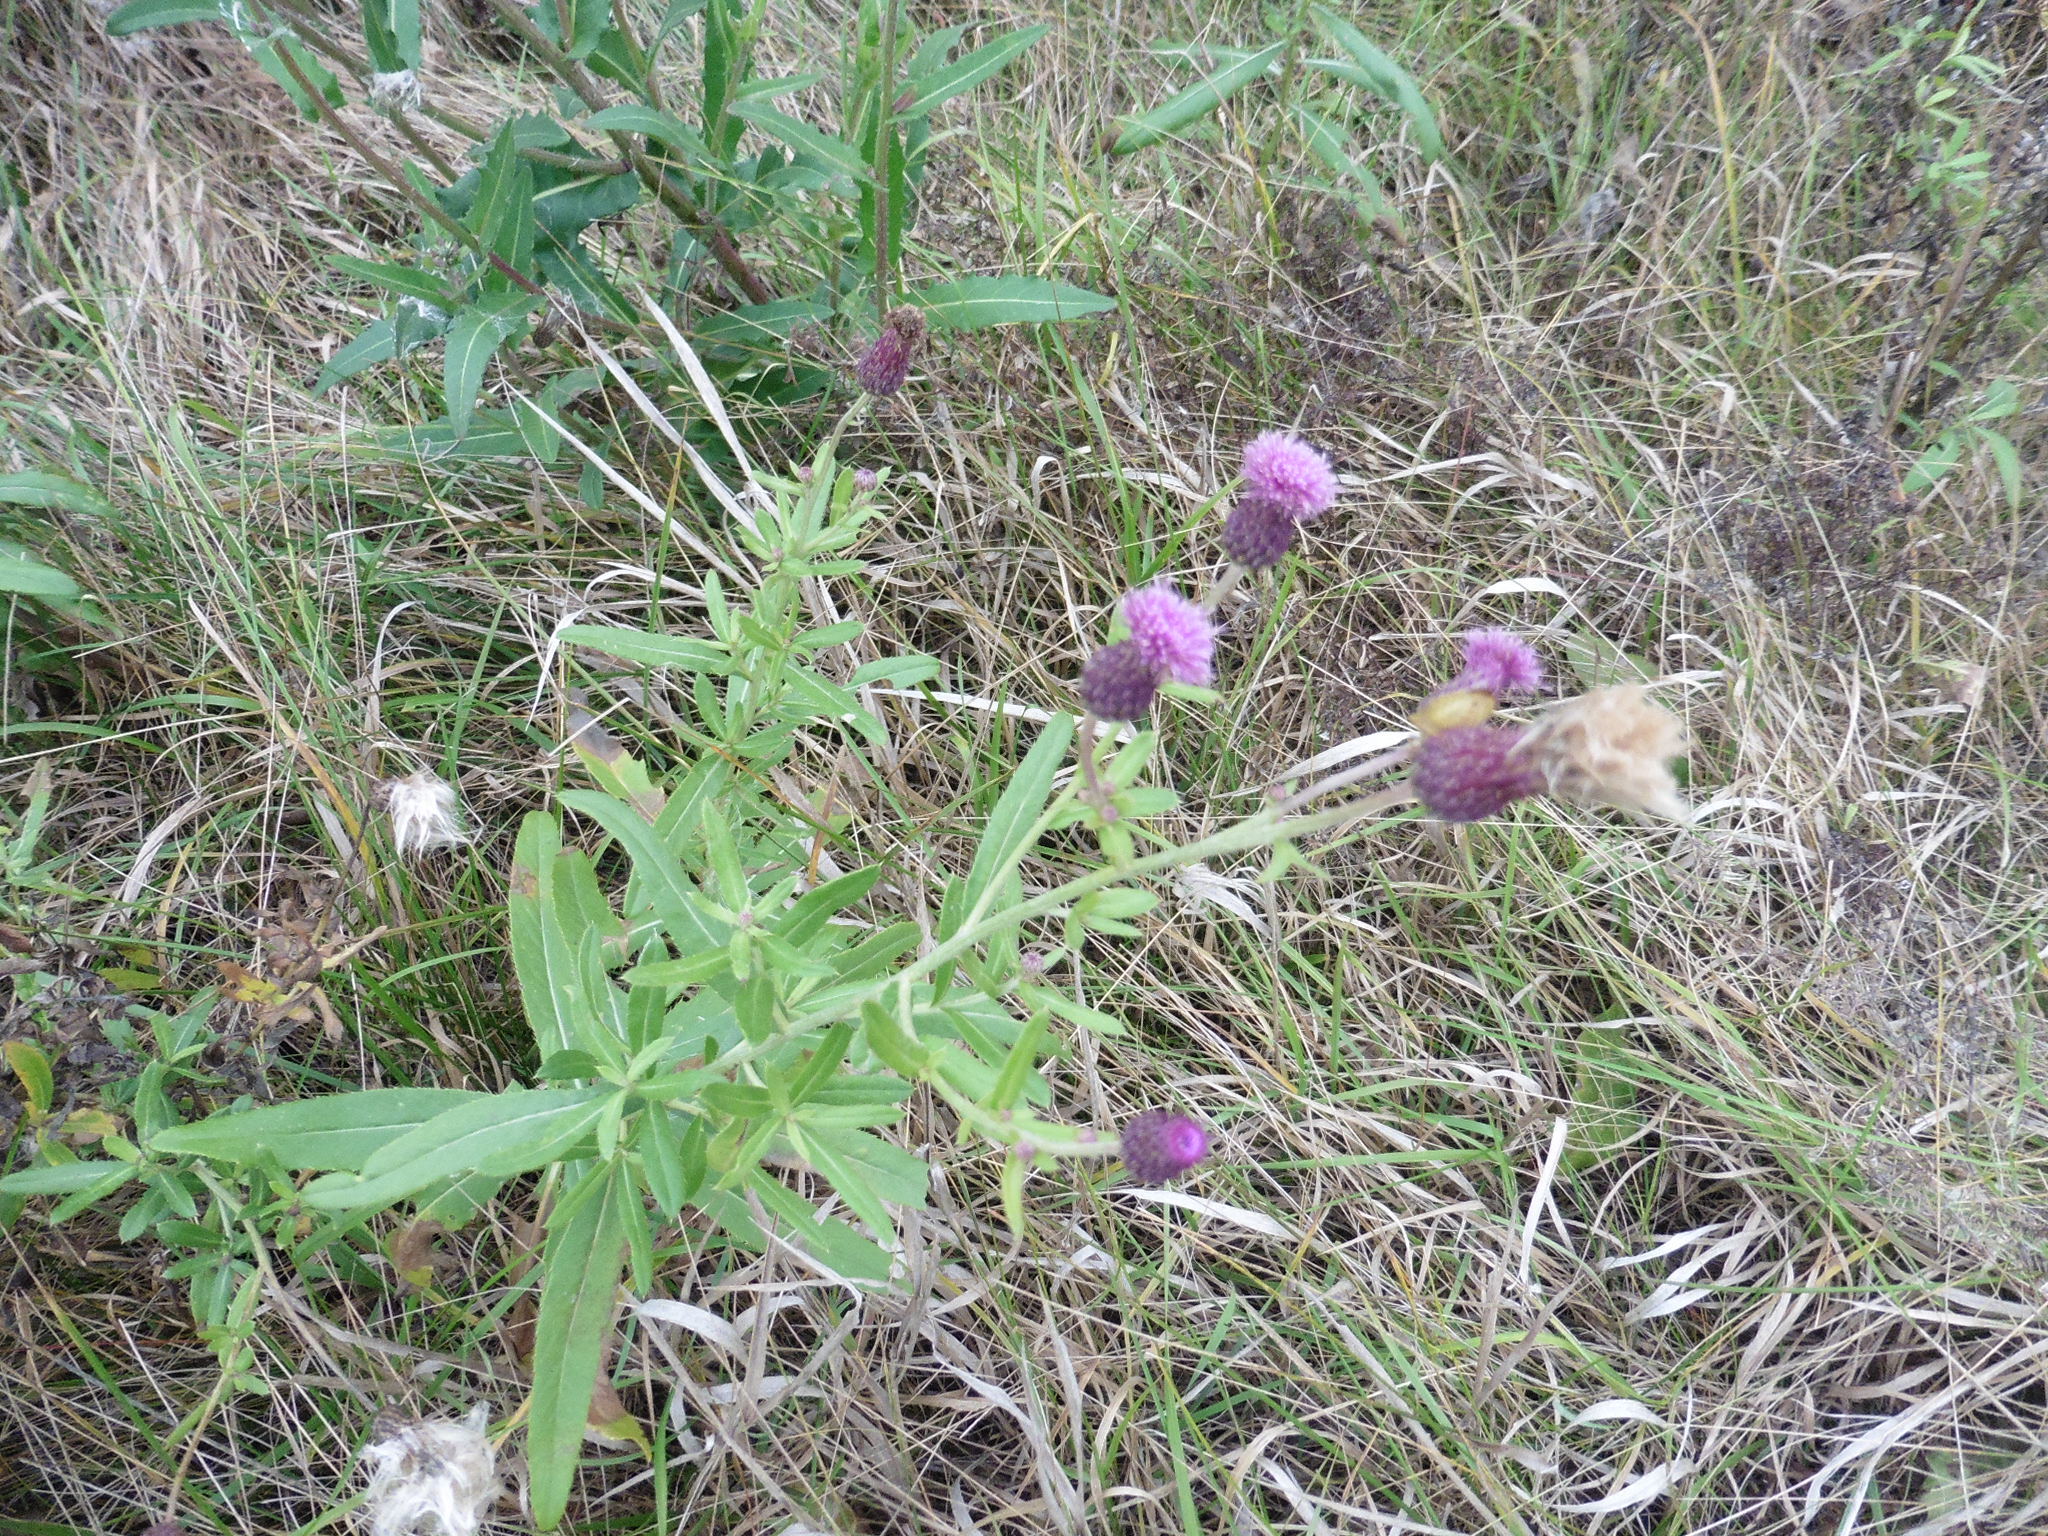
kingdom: Plantae
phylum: Tracheophyta
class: Magnoliopsida
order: Asterales
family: Asteraceae
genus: Cirsium
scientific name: Cirsium arvense
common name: Creeping thistle
